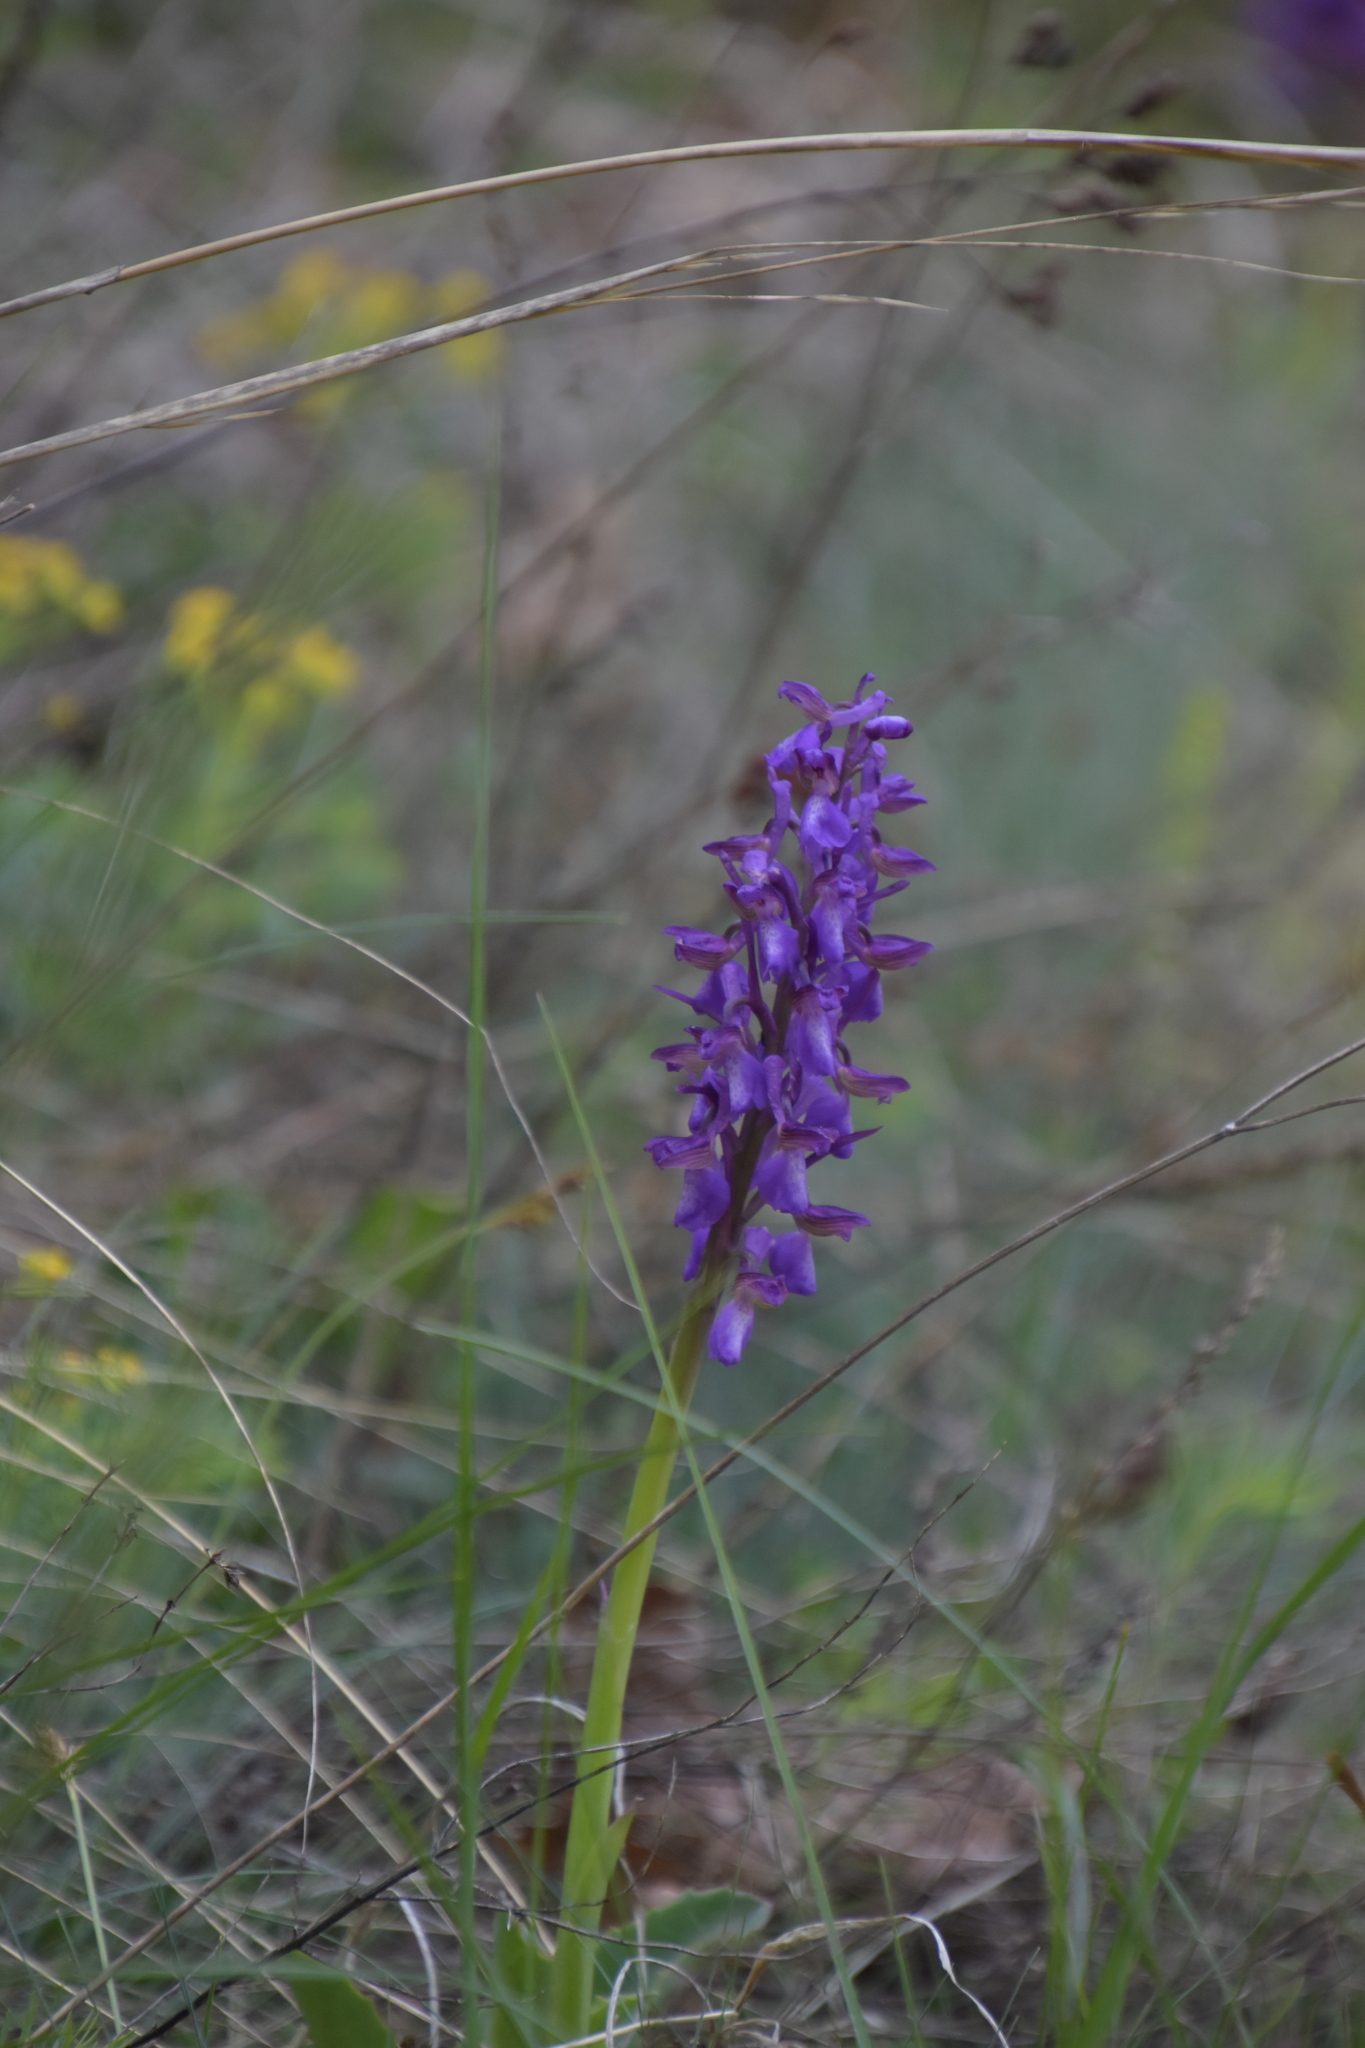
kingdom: Plantae
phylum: Tracheophyta
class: Liliopsida
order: Asparagales
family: Orchidaceae
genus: Anacamptis
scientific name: Anacamptis morio
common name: Green-winged orchid
